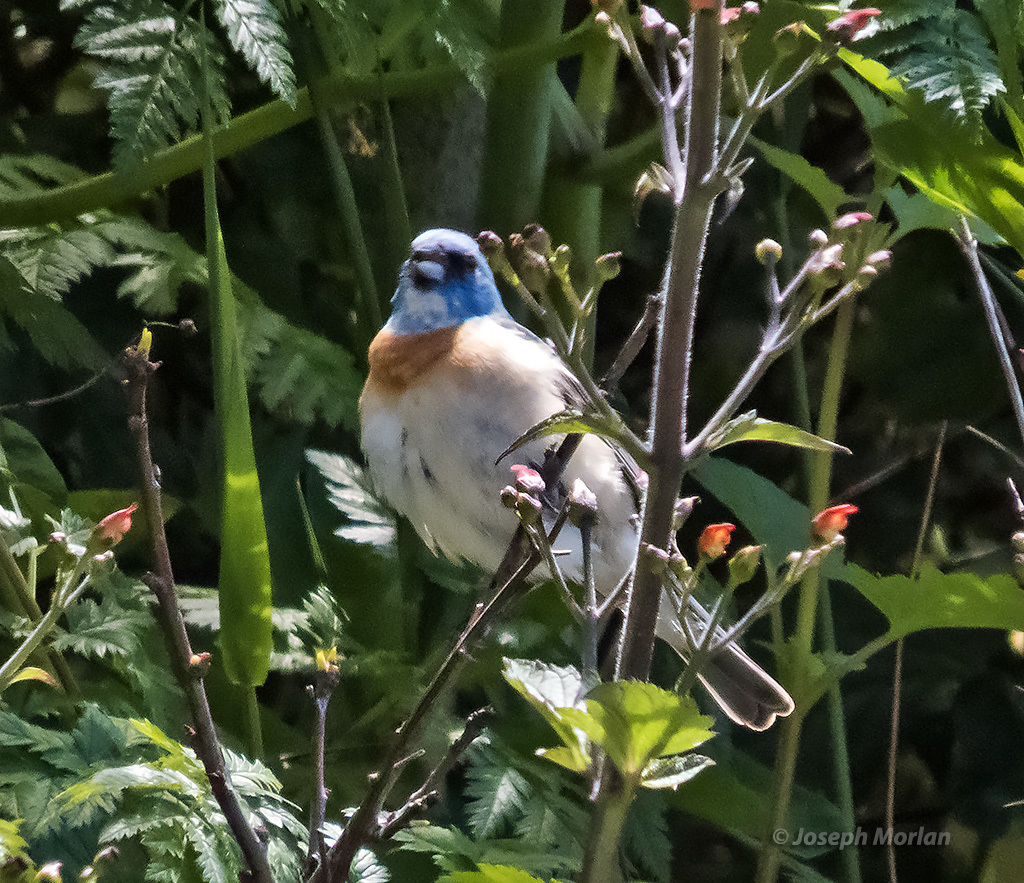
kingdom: Animalia
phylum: Chordata
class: Aves
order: Passeriformes
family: Cardinalidae
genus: Passerina
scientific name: Passerina amoena
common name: Lazuli bunting
